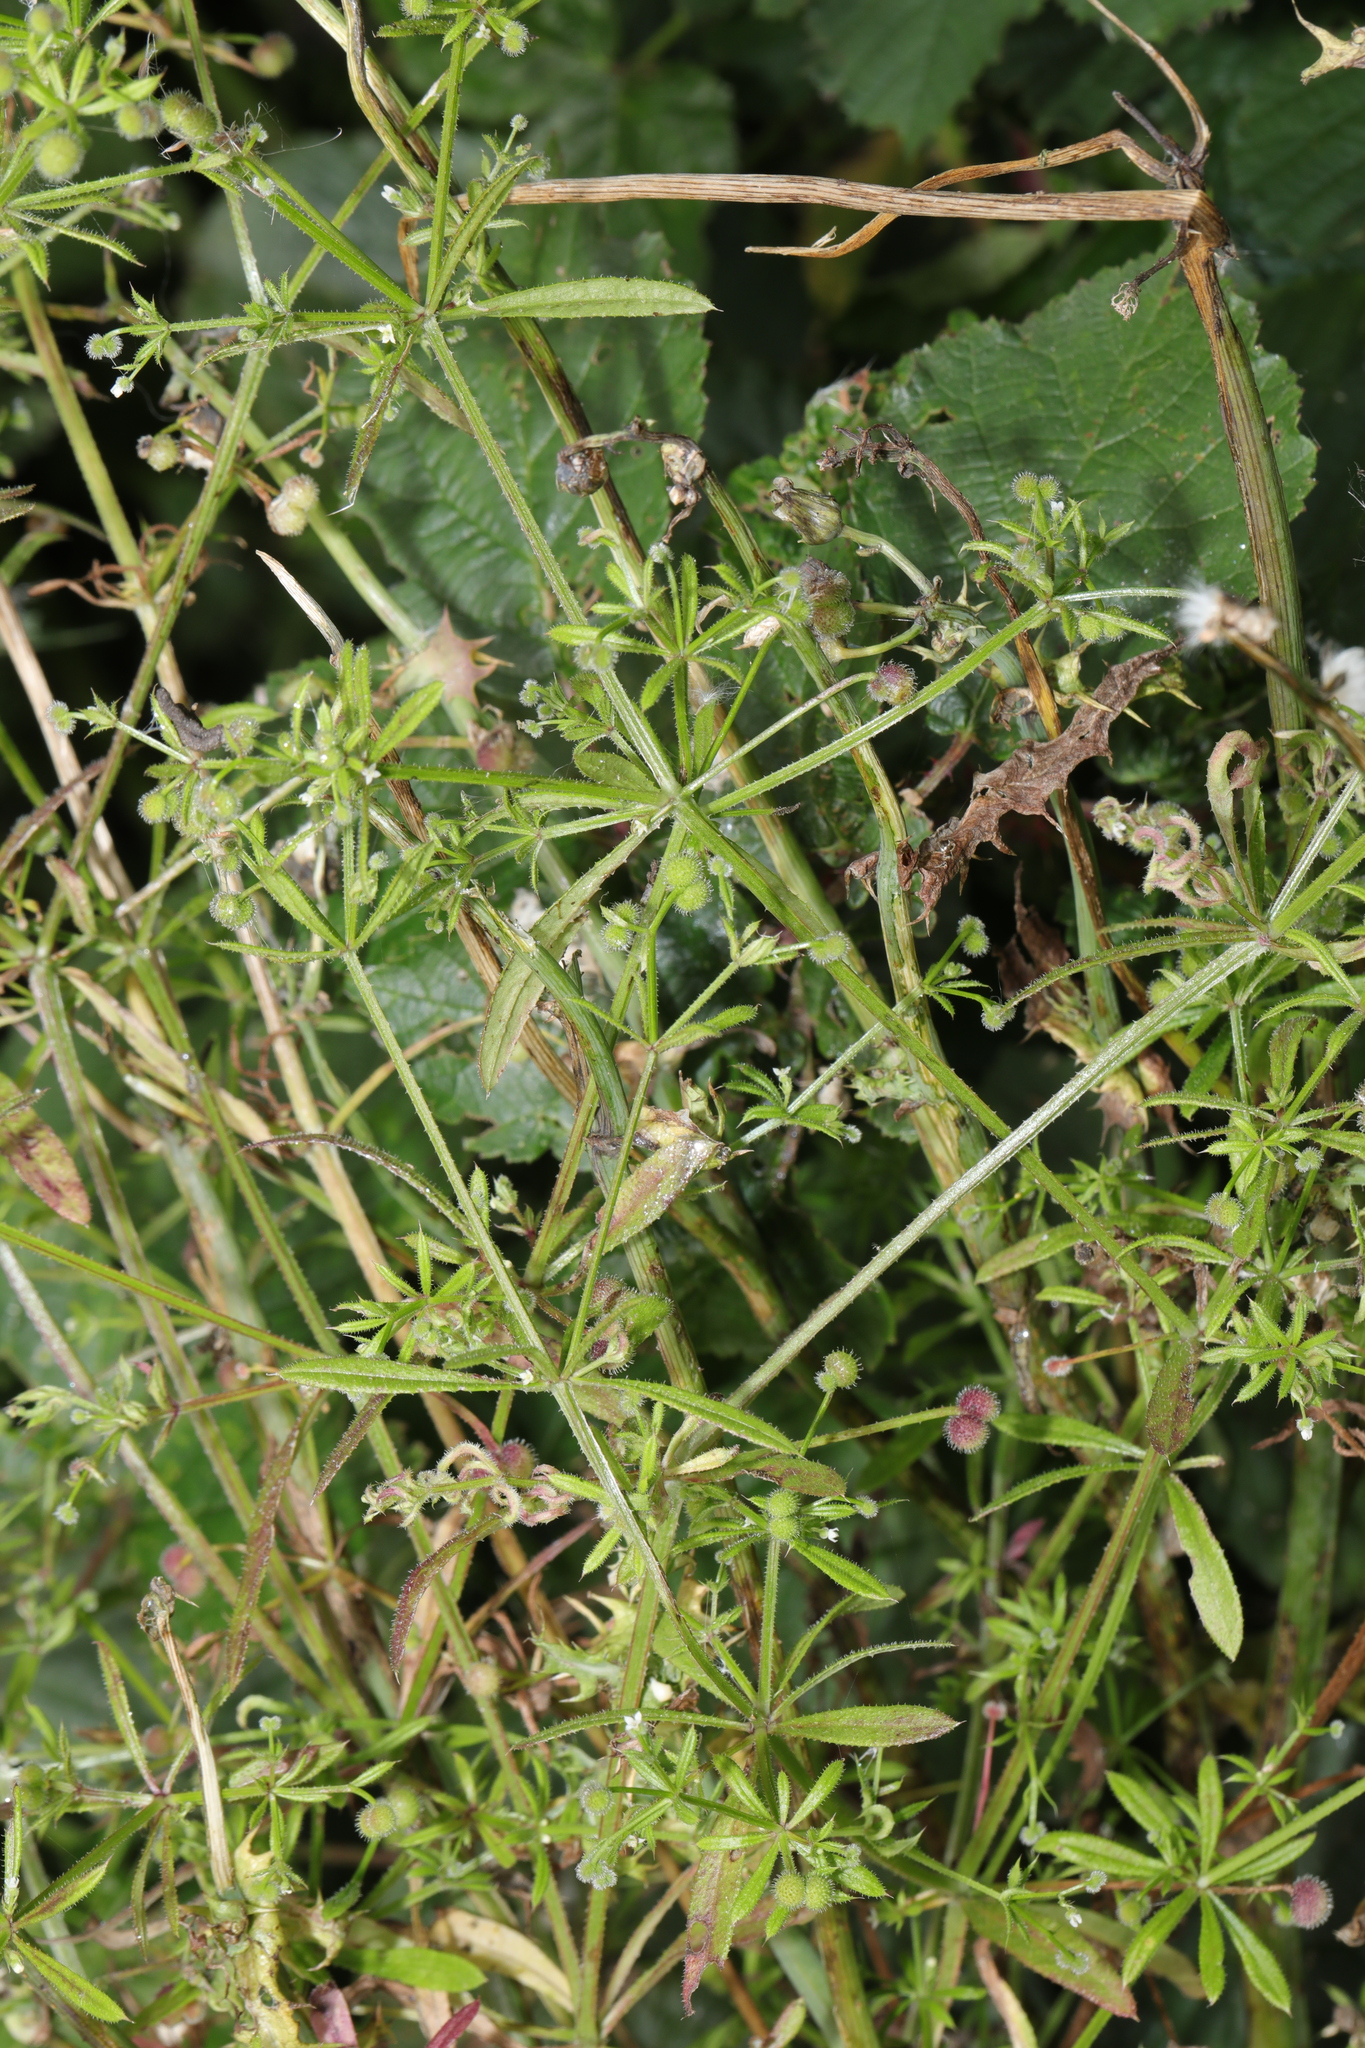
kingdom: Plantae
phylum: Tracheophyta
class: Magnoliopsida
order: Gentianales
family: Rubiaceae
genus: Galium
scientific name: Galium aparine
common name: Cleavers
